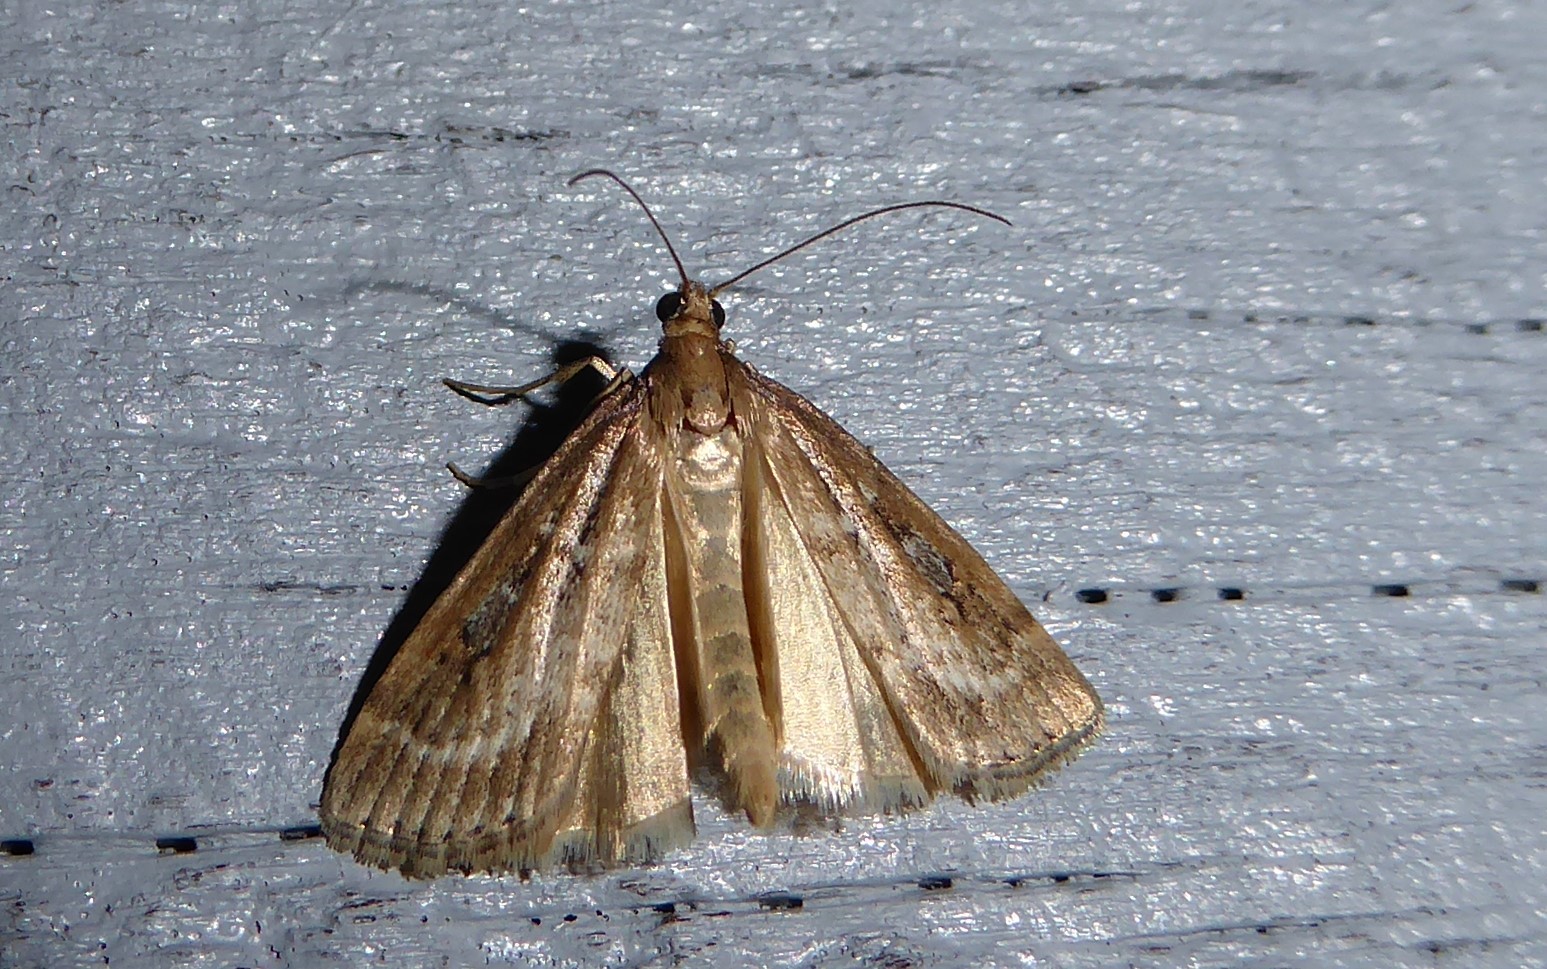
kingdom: Animalia
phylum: Arthropoda
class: Insecta
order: Lepidoptera
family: Crambidae
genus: Eudonia
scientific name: Eudonia octophora
